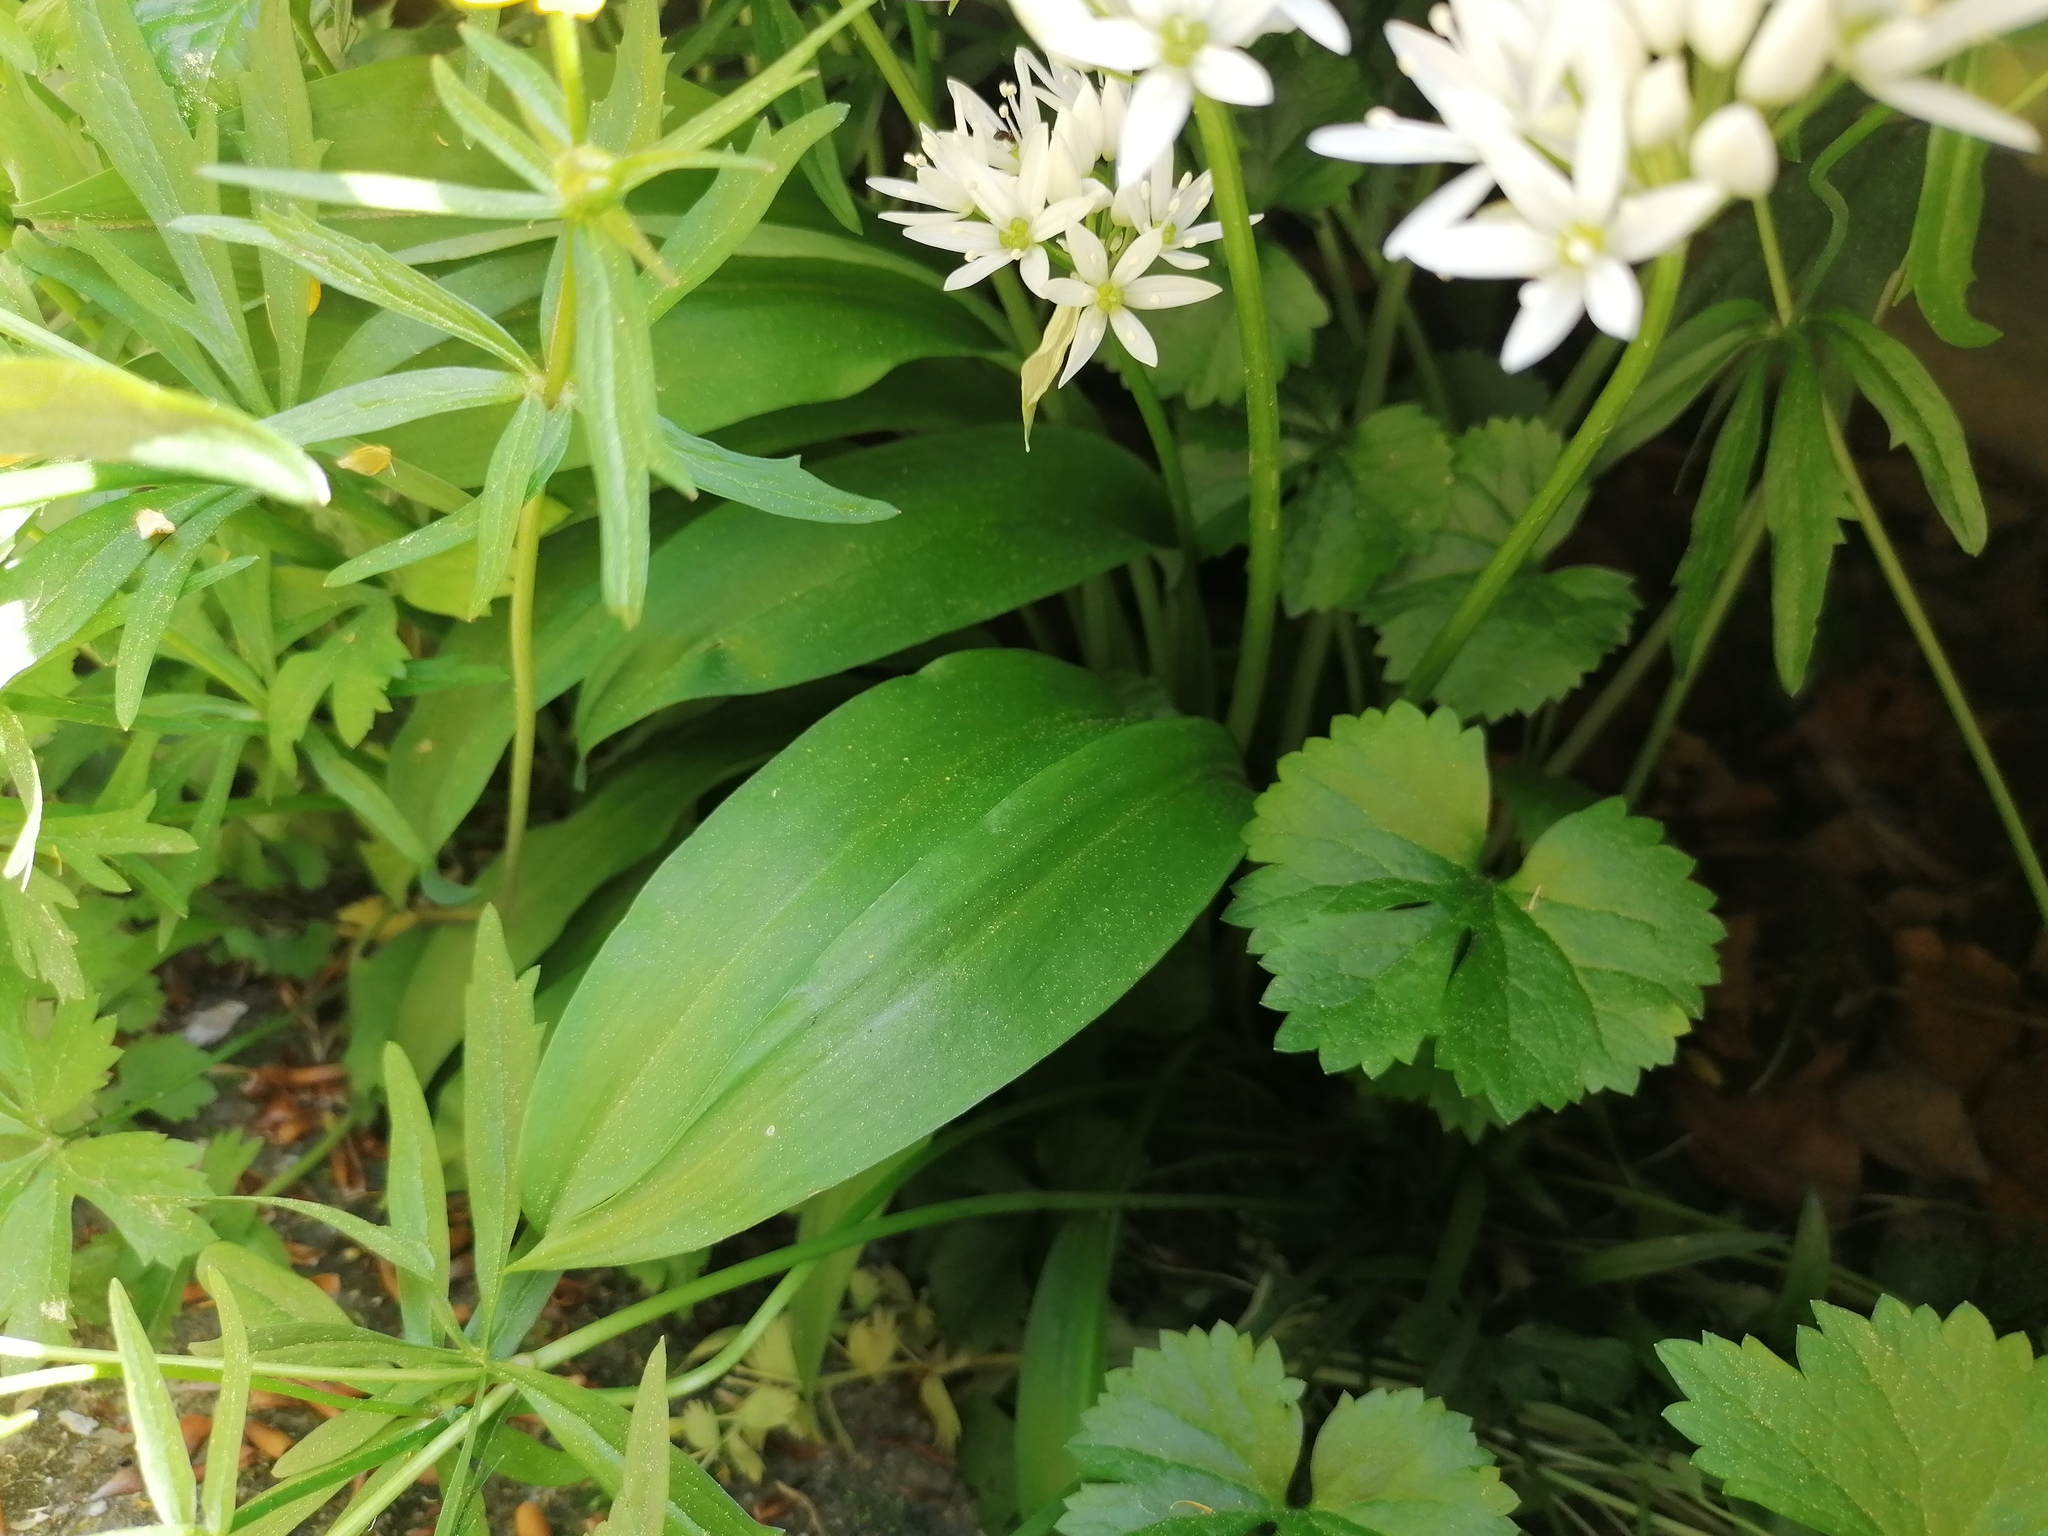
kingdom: Plantae
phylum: Tracheophyta
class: Liliopsida
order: Asparagales
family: Amaryllidaceae
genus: Allium
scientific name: Allium ursinum
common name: Ramsons
